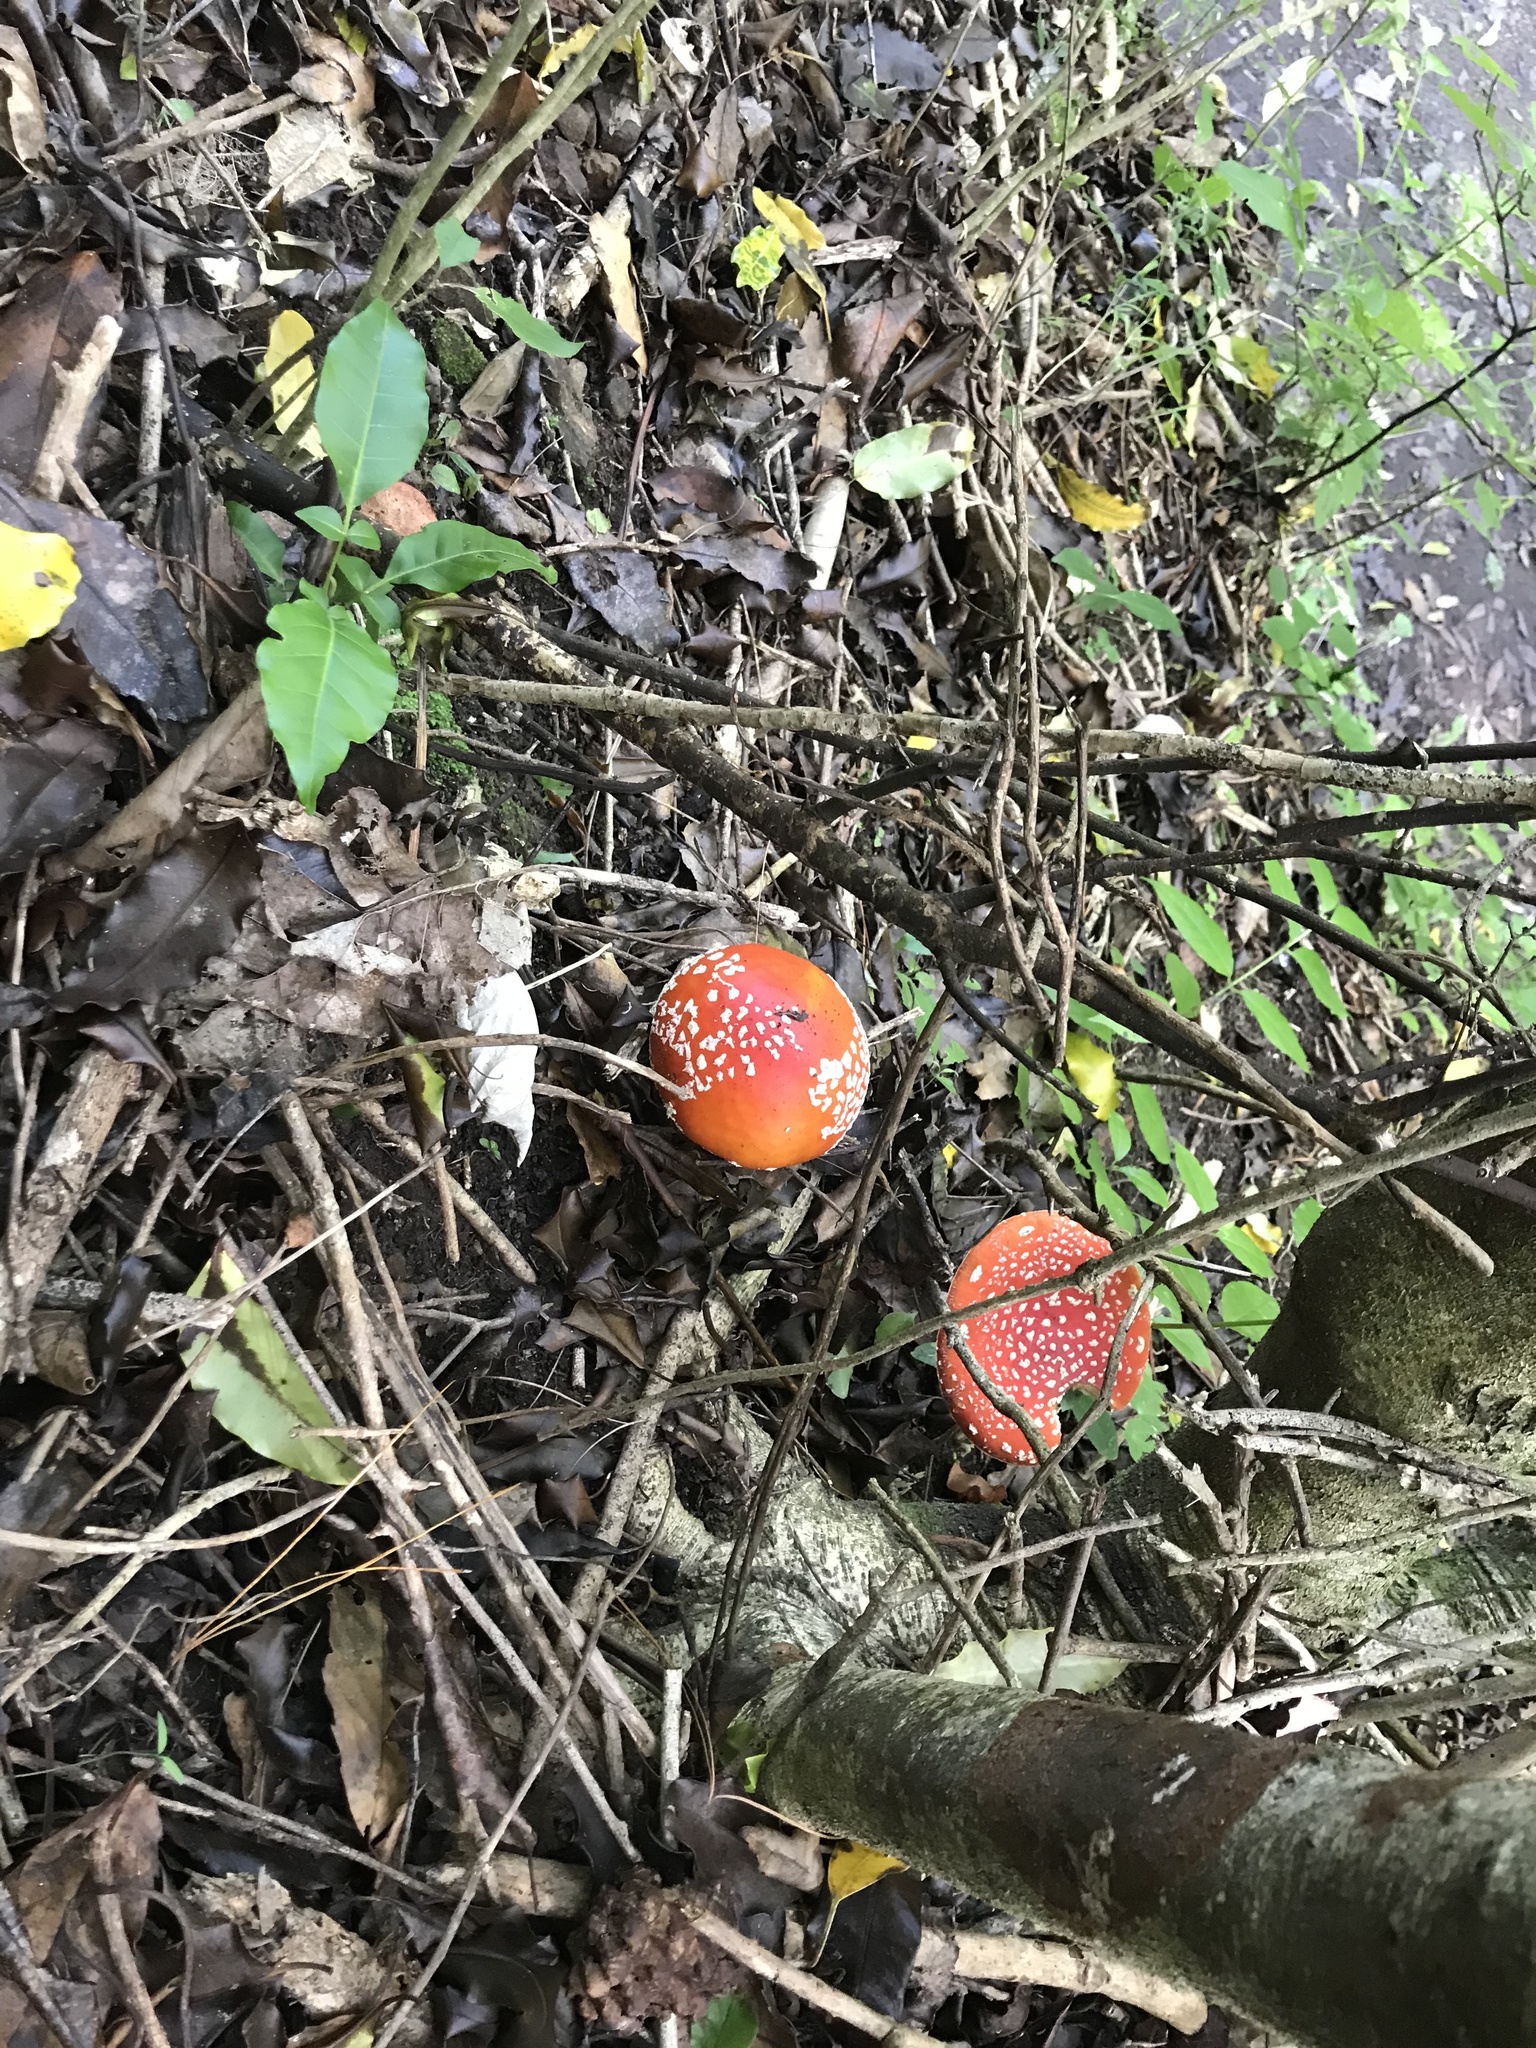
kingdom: Fungi
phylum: Basidiomycota
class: Agaricomycetes
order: Agaricales
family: Amanitaceae
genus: Amanita
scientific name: Amanita muscaria
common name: Fly agaric
